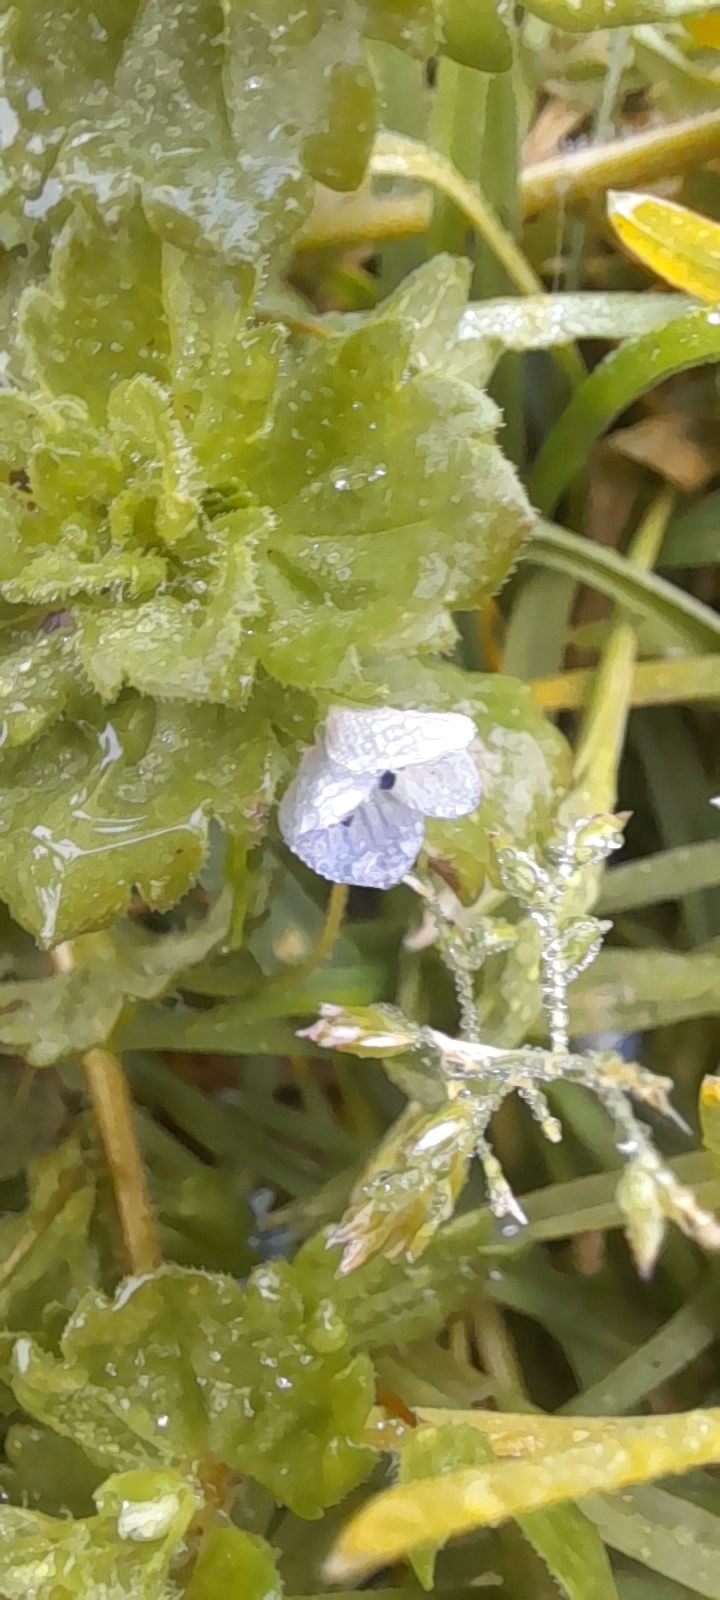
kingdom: Plantae
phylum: Tracheophyta
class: Magnoliopsida
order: Lamiales
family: Plantaginaceae
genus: Veronica
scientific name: Veronica persica
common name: Common field-speedwell
